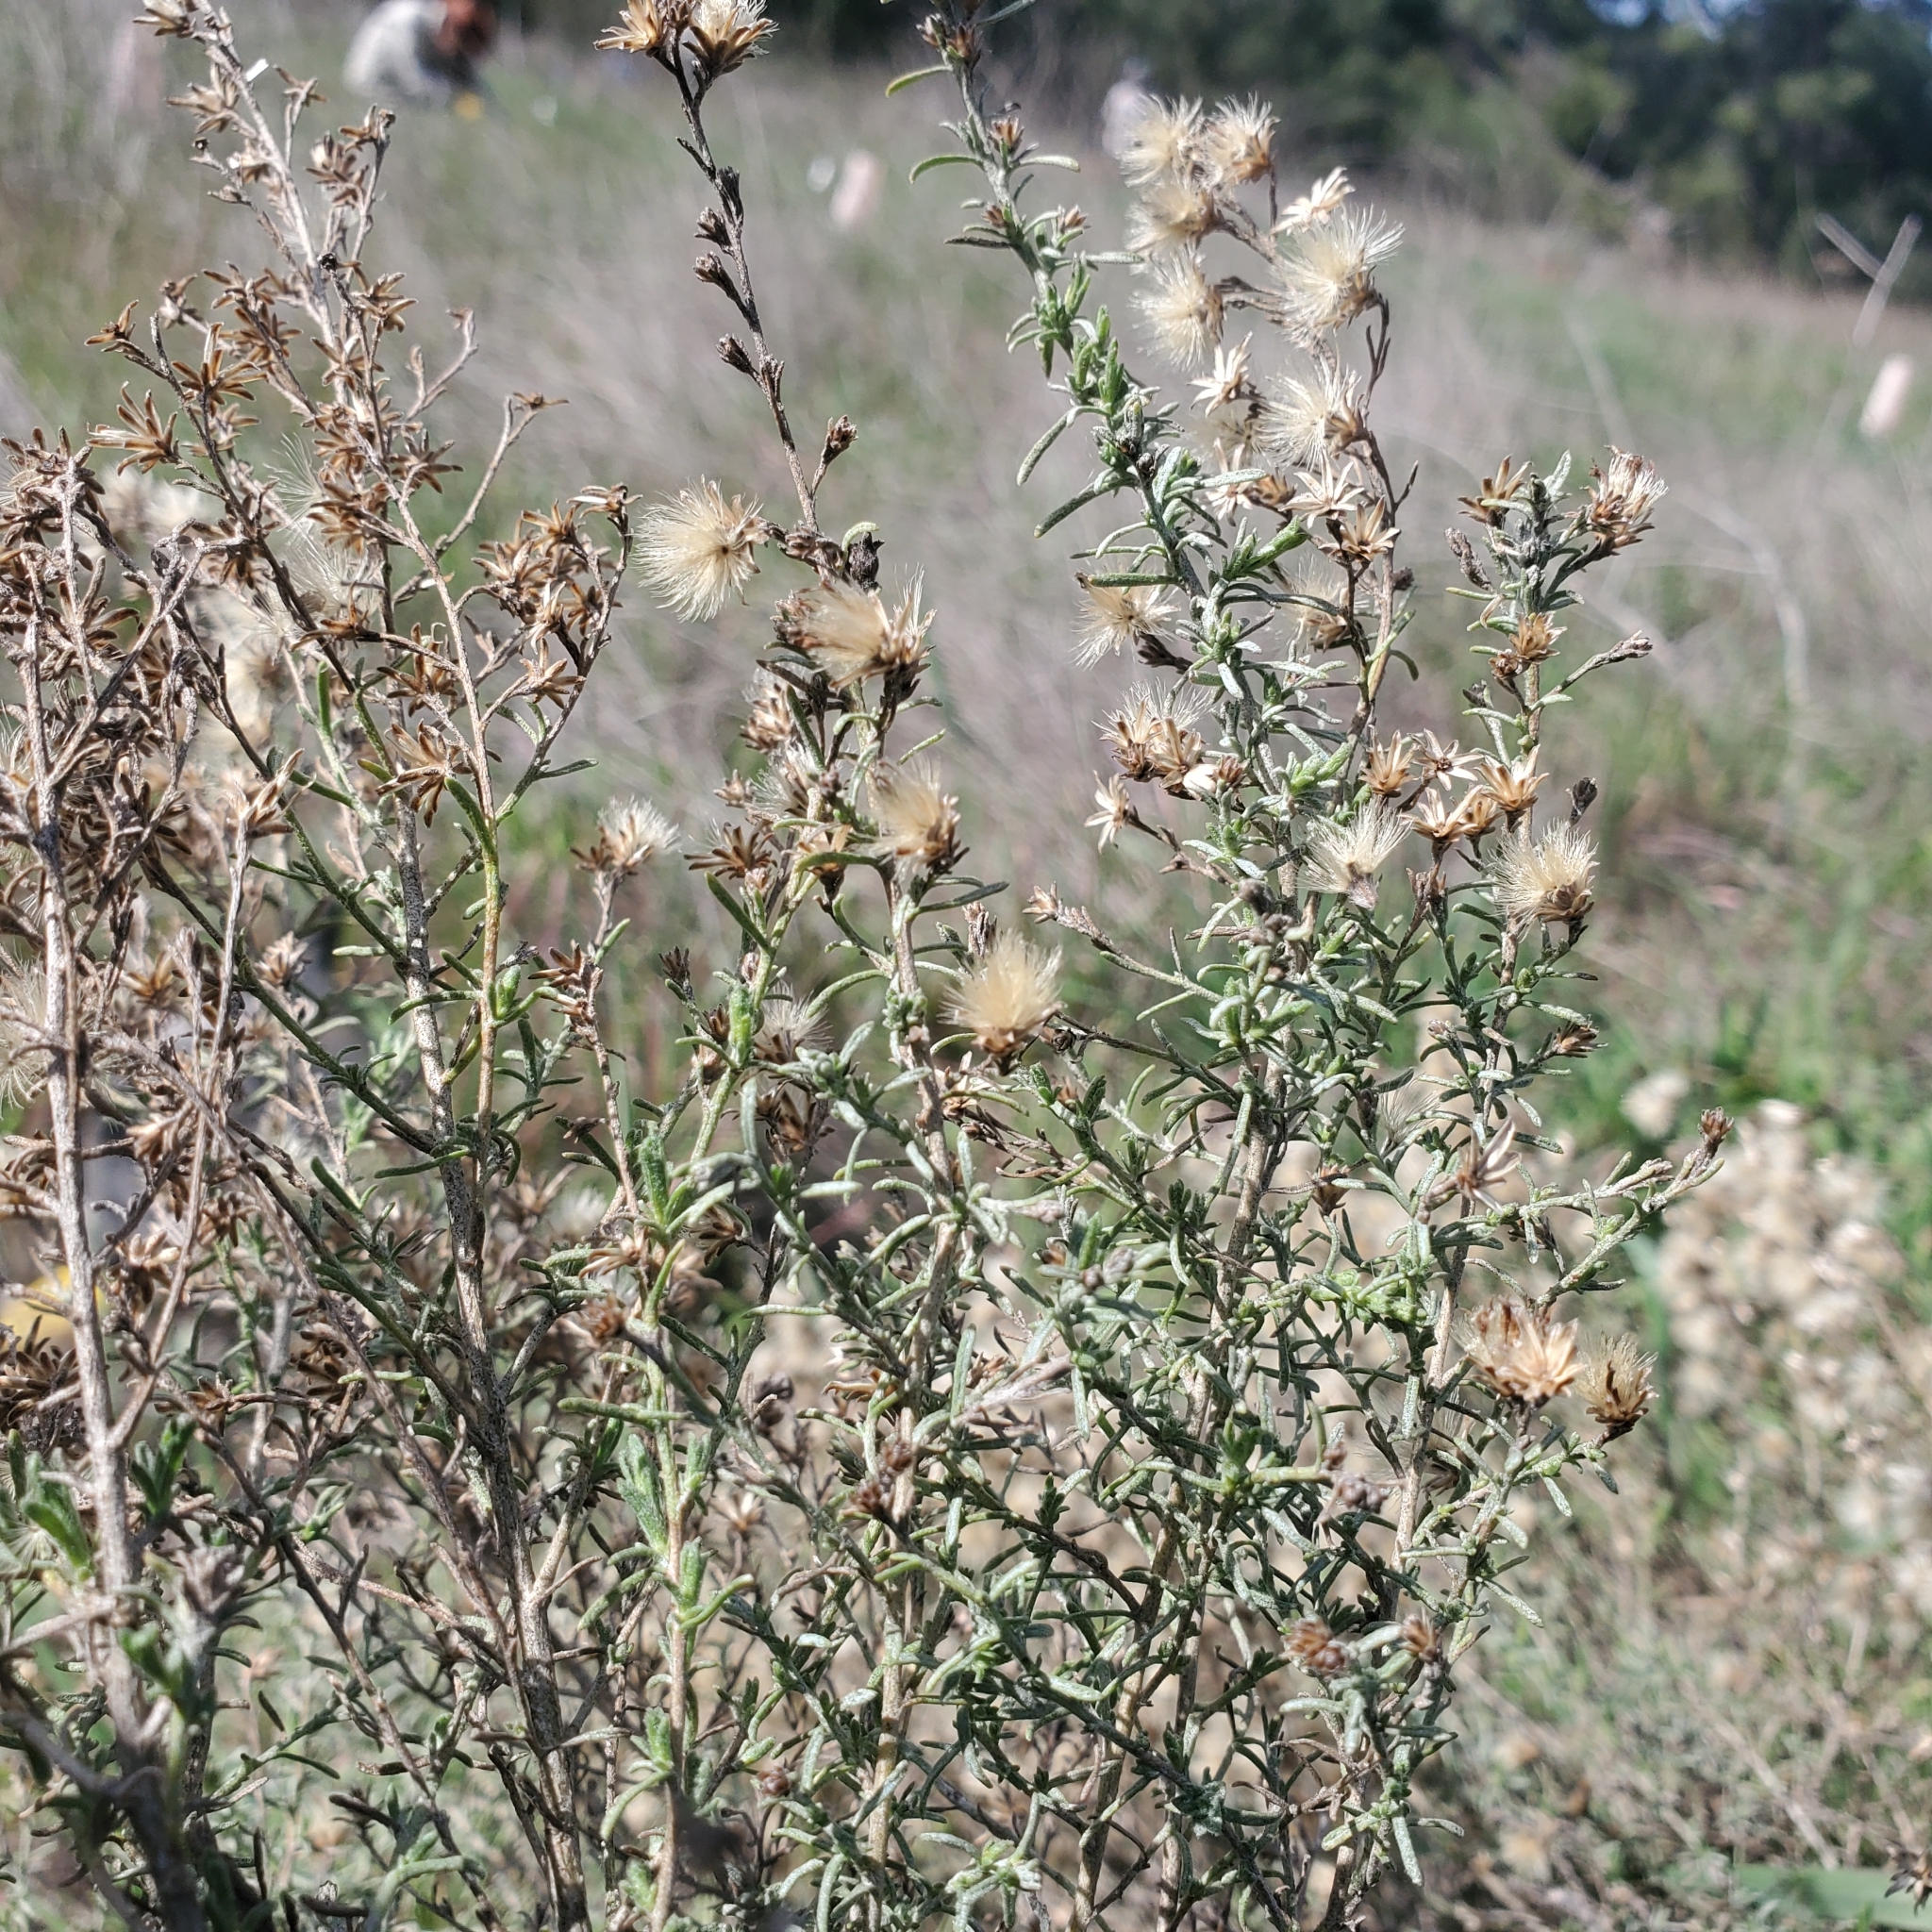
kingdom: Plantae
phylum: Tracheophyta
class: Magnoliopsida
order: Asterales
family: Asteraceae
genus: Ericameria
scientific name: Ericameria palmeri
